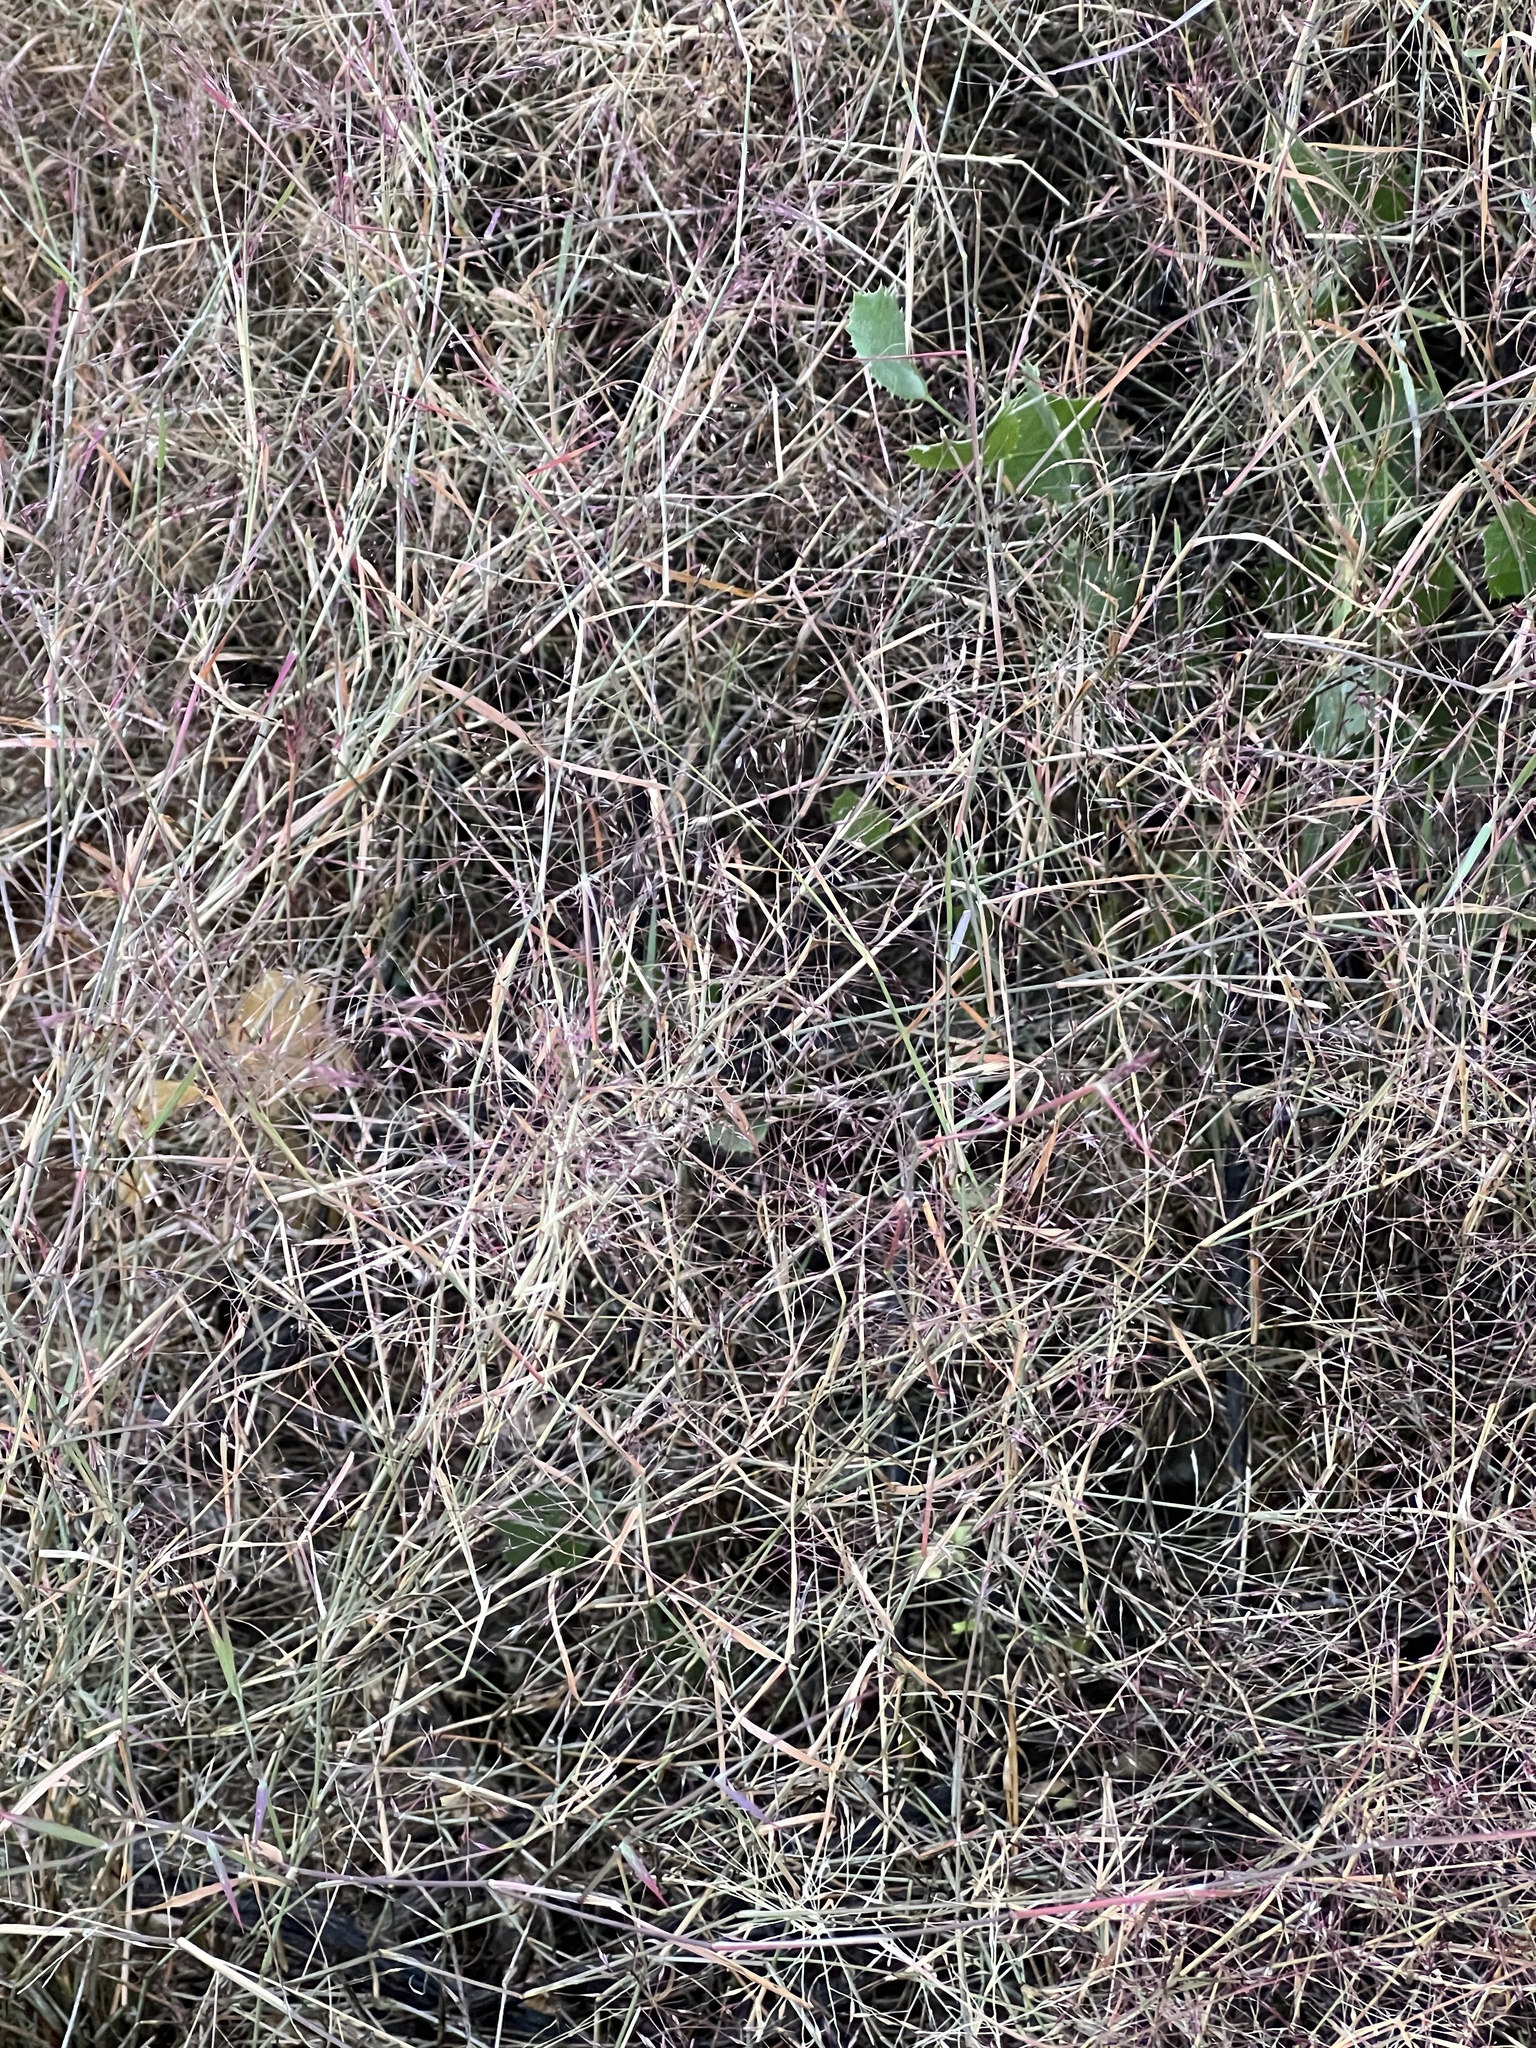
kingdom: Plantae
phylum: Tracheophyta
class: Liliopsida
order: Poales
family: Poaceae
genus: Muhlenbergia
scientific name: Muhlenbergia porteri
